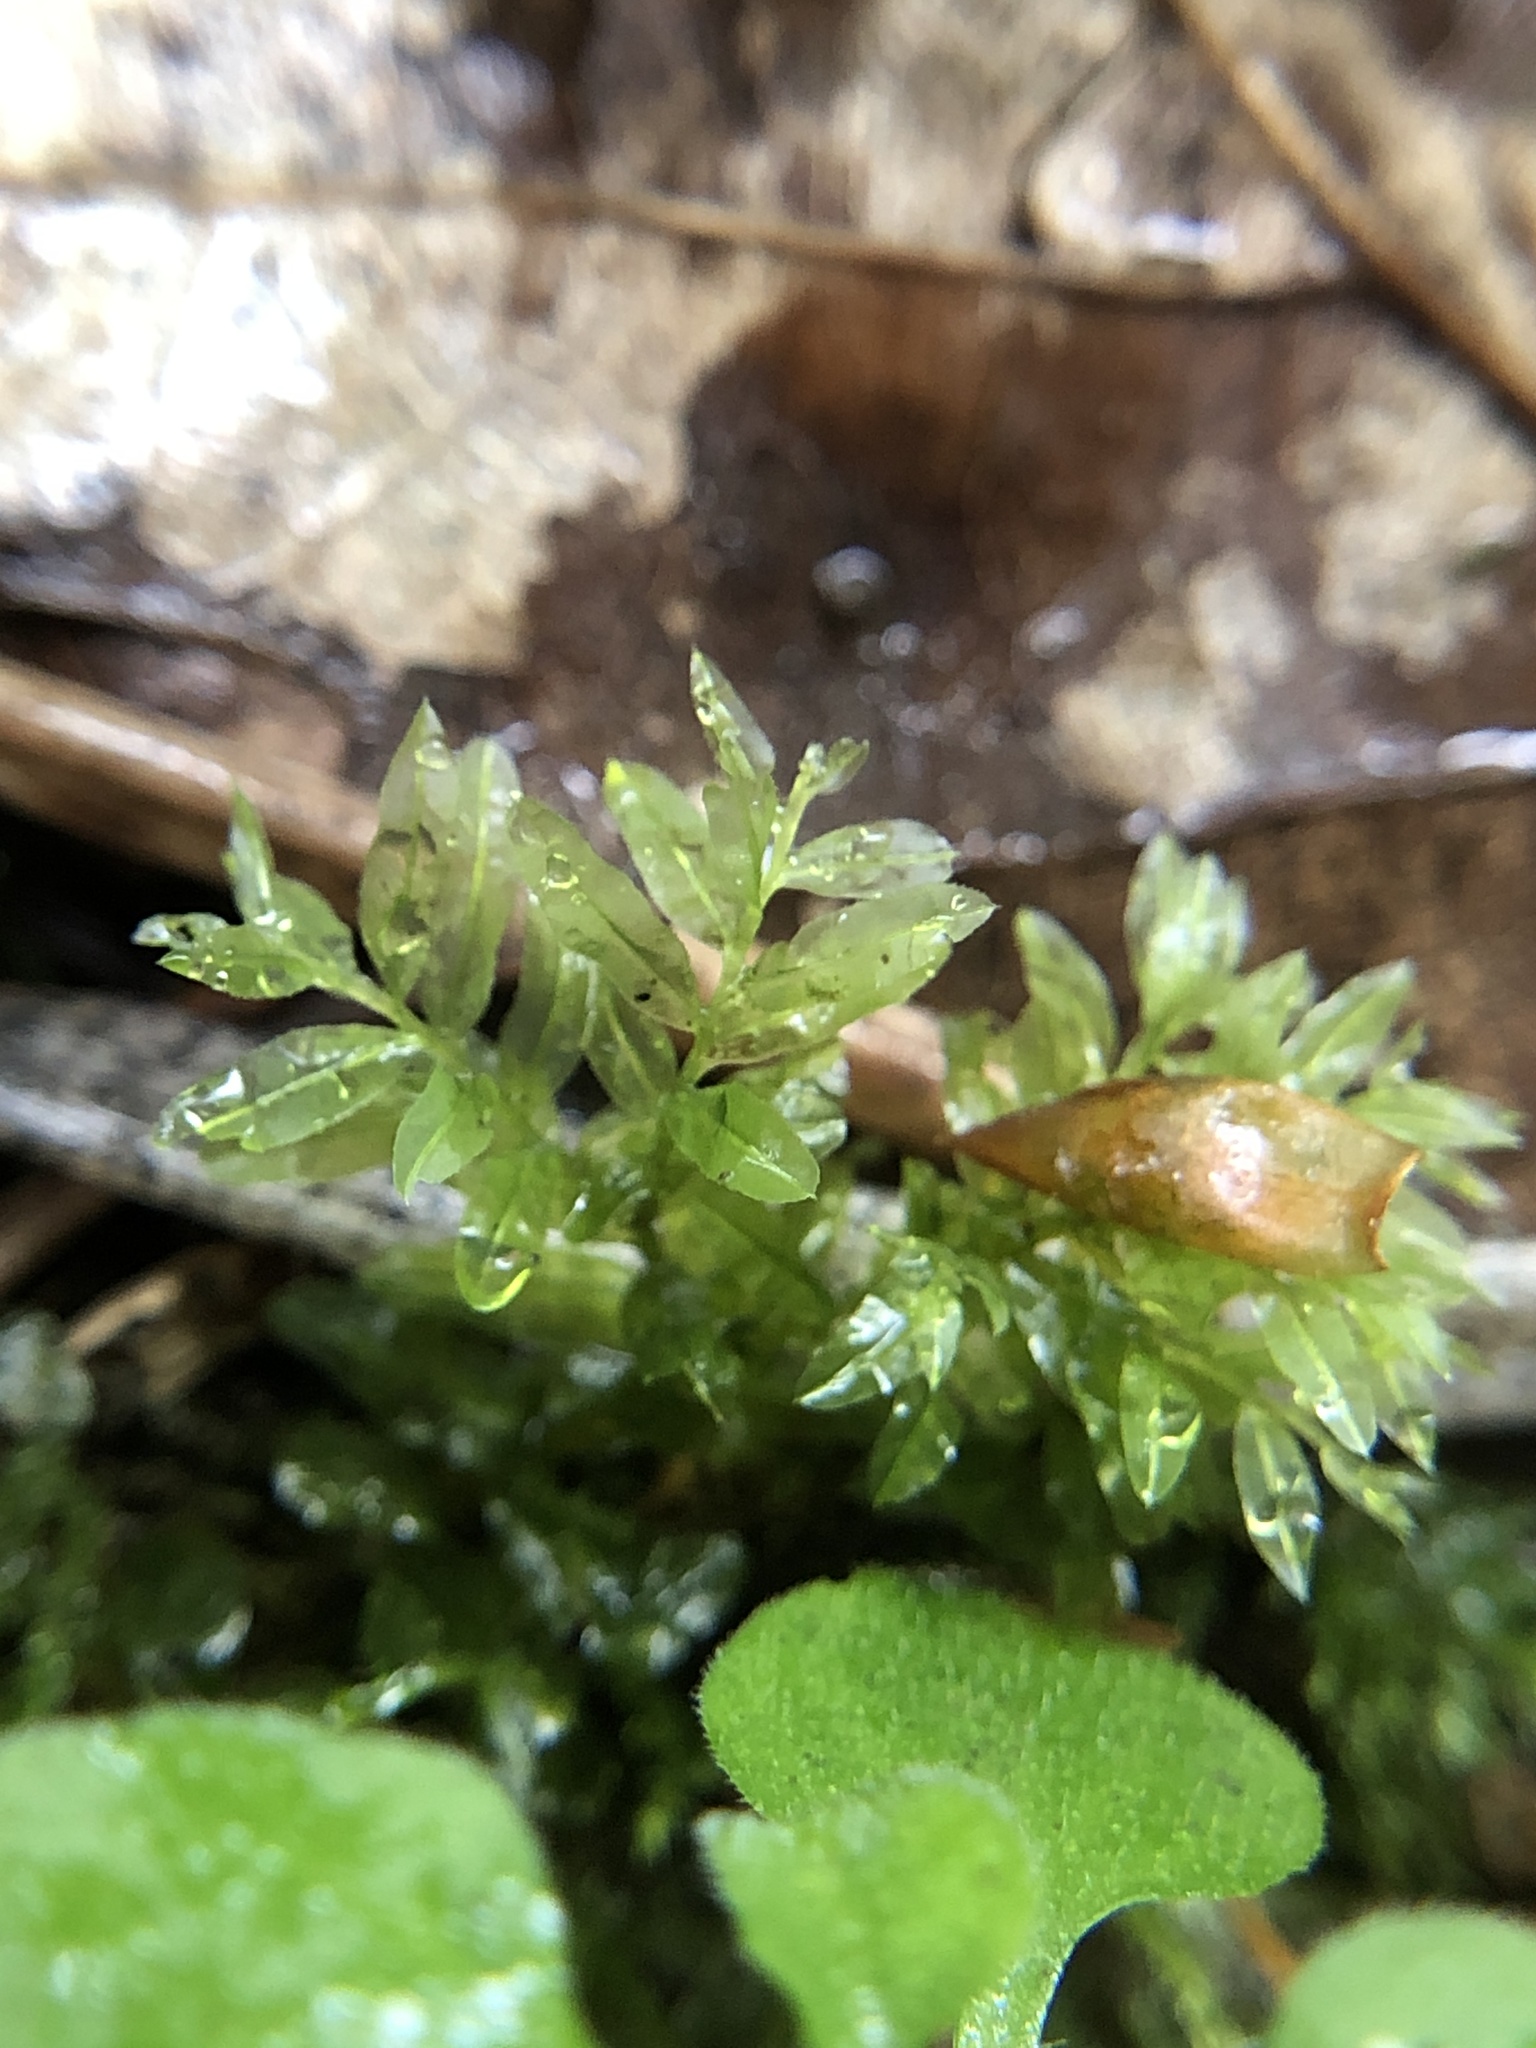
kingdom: Plantae
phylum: Bryophyta
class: Bryopsida
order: Bryales
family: Mniaceae
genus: Plagiomnium
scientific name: Plagiomnium undulatum
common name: Hart's-tongue thyme-moss
